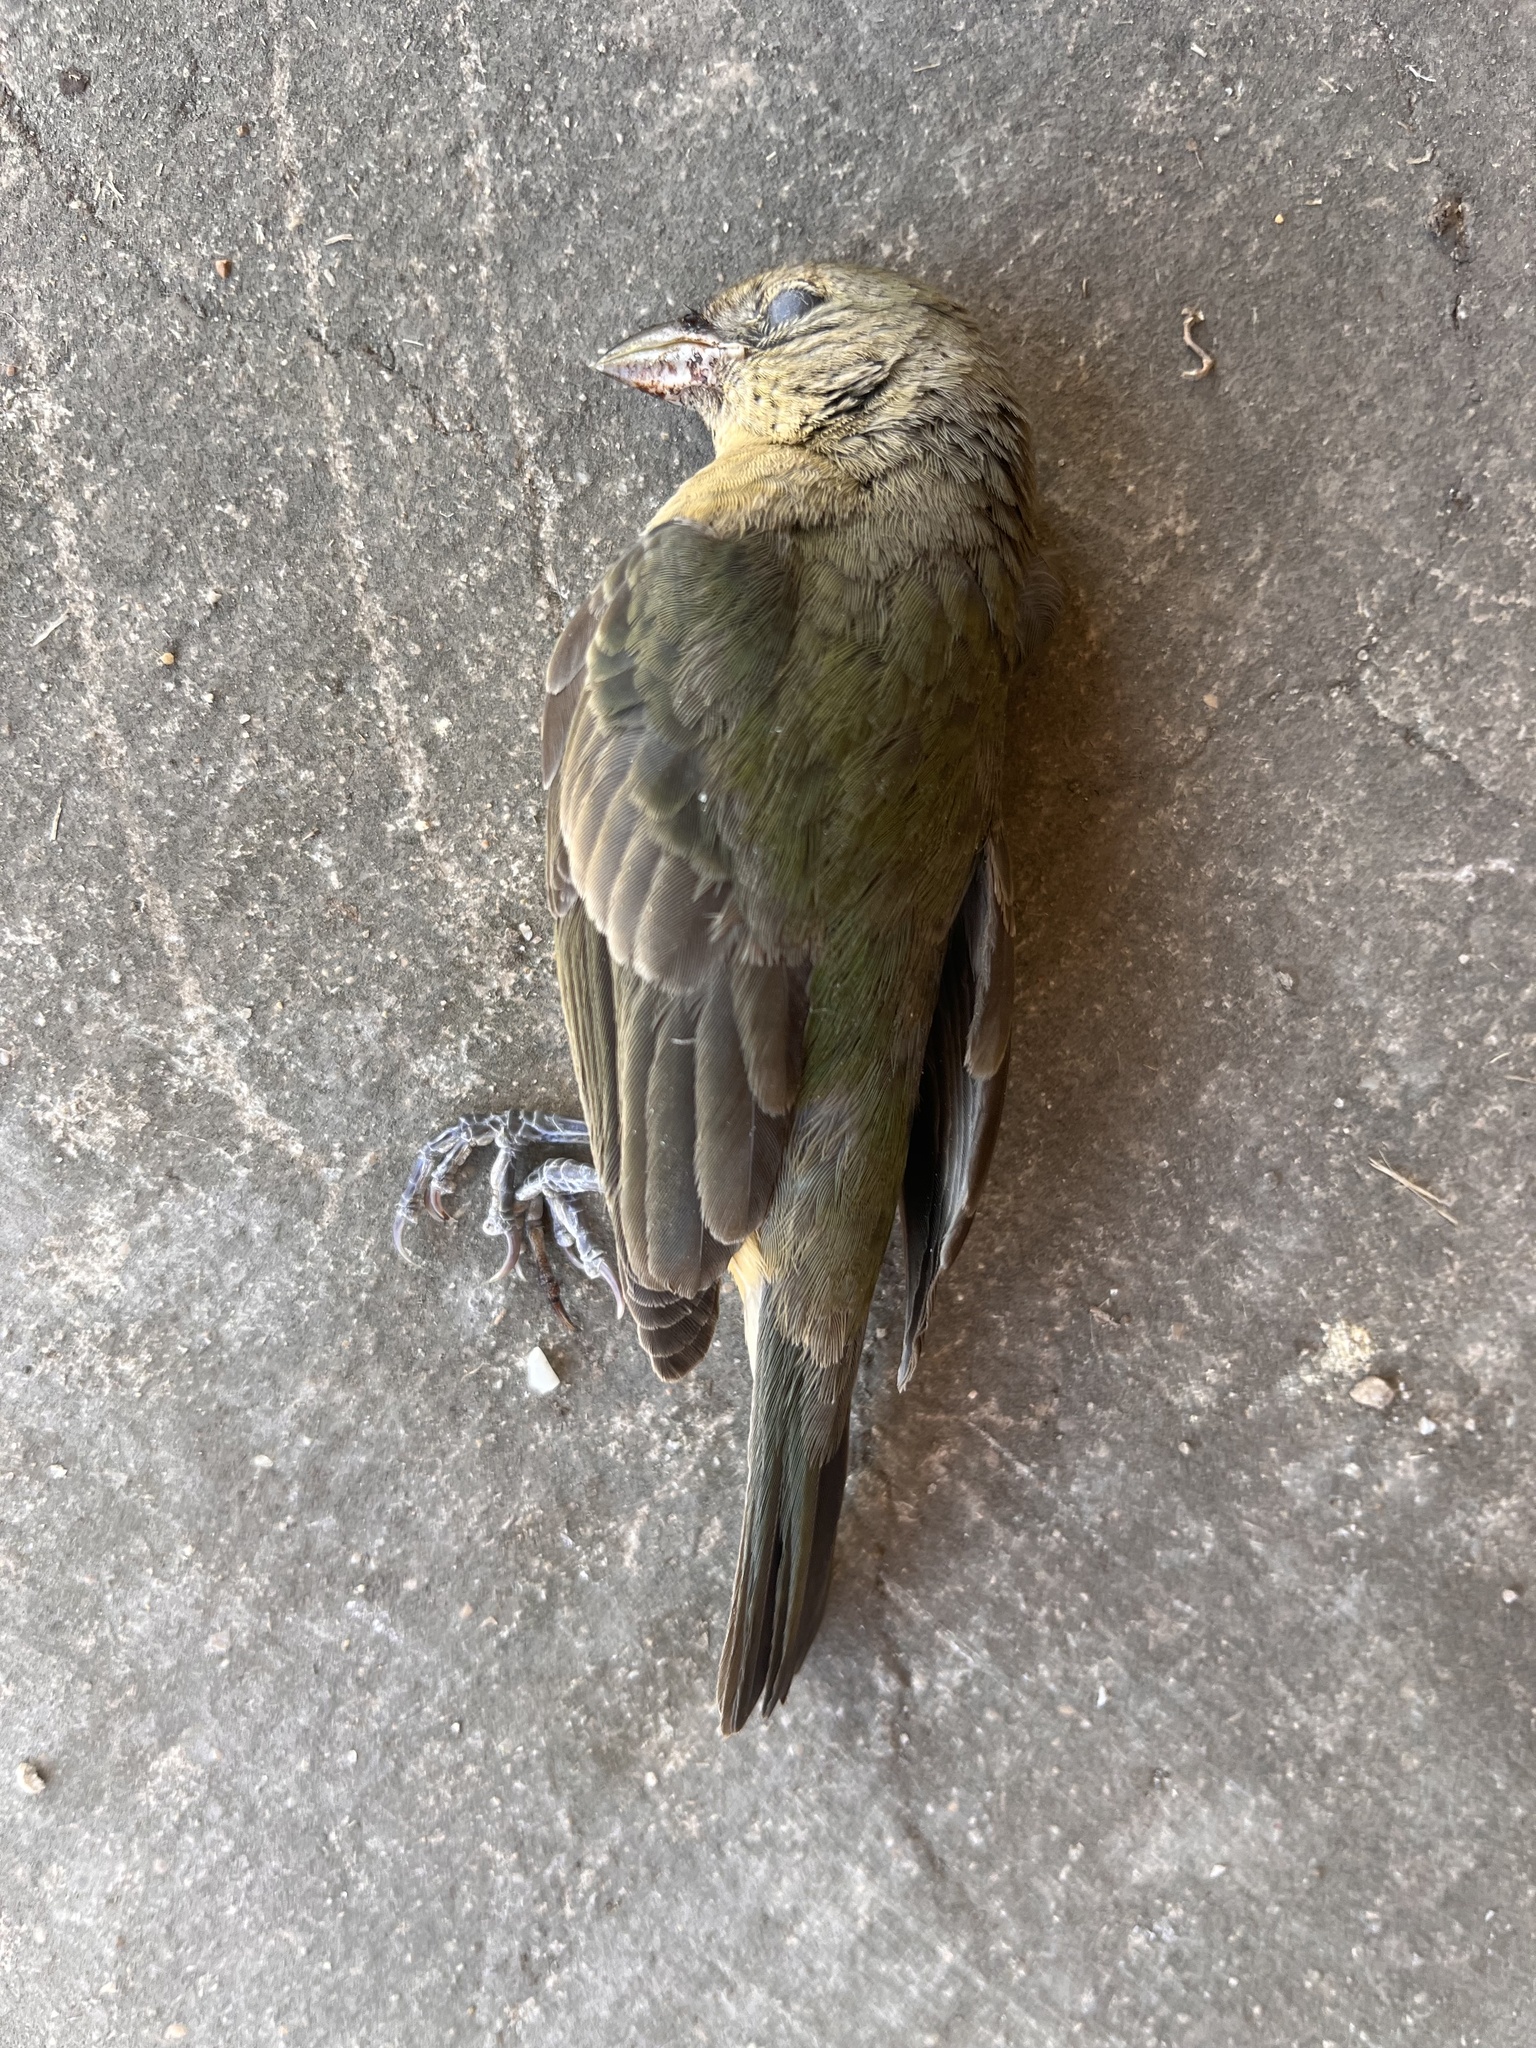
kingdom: Animalia
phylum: Chordata
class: Aves
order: Passeriformes
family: Cardinalidae
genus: Passerina
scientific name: Passerina ciris
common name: Painted bunting
